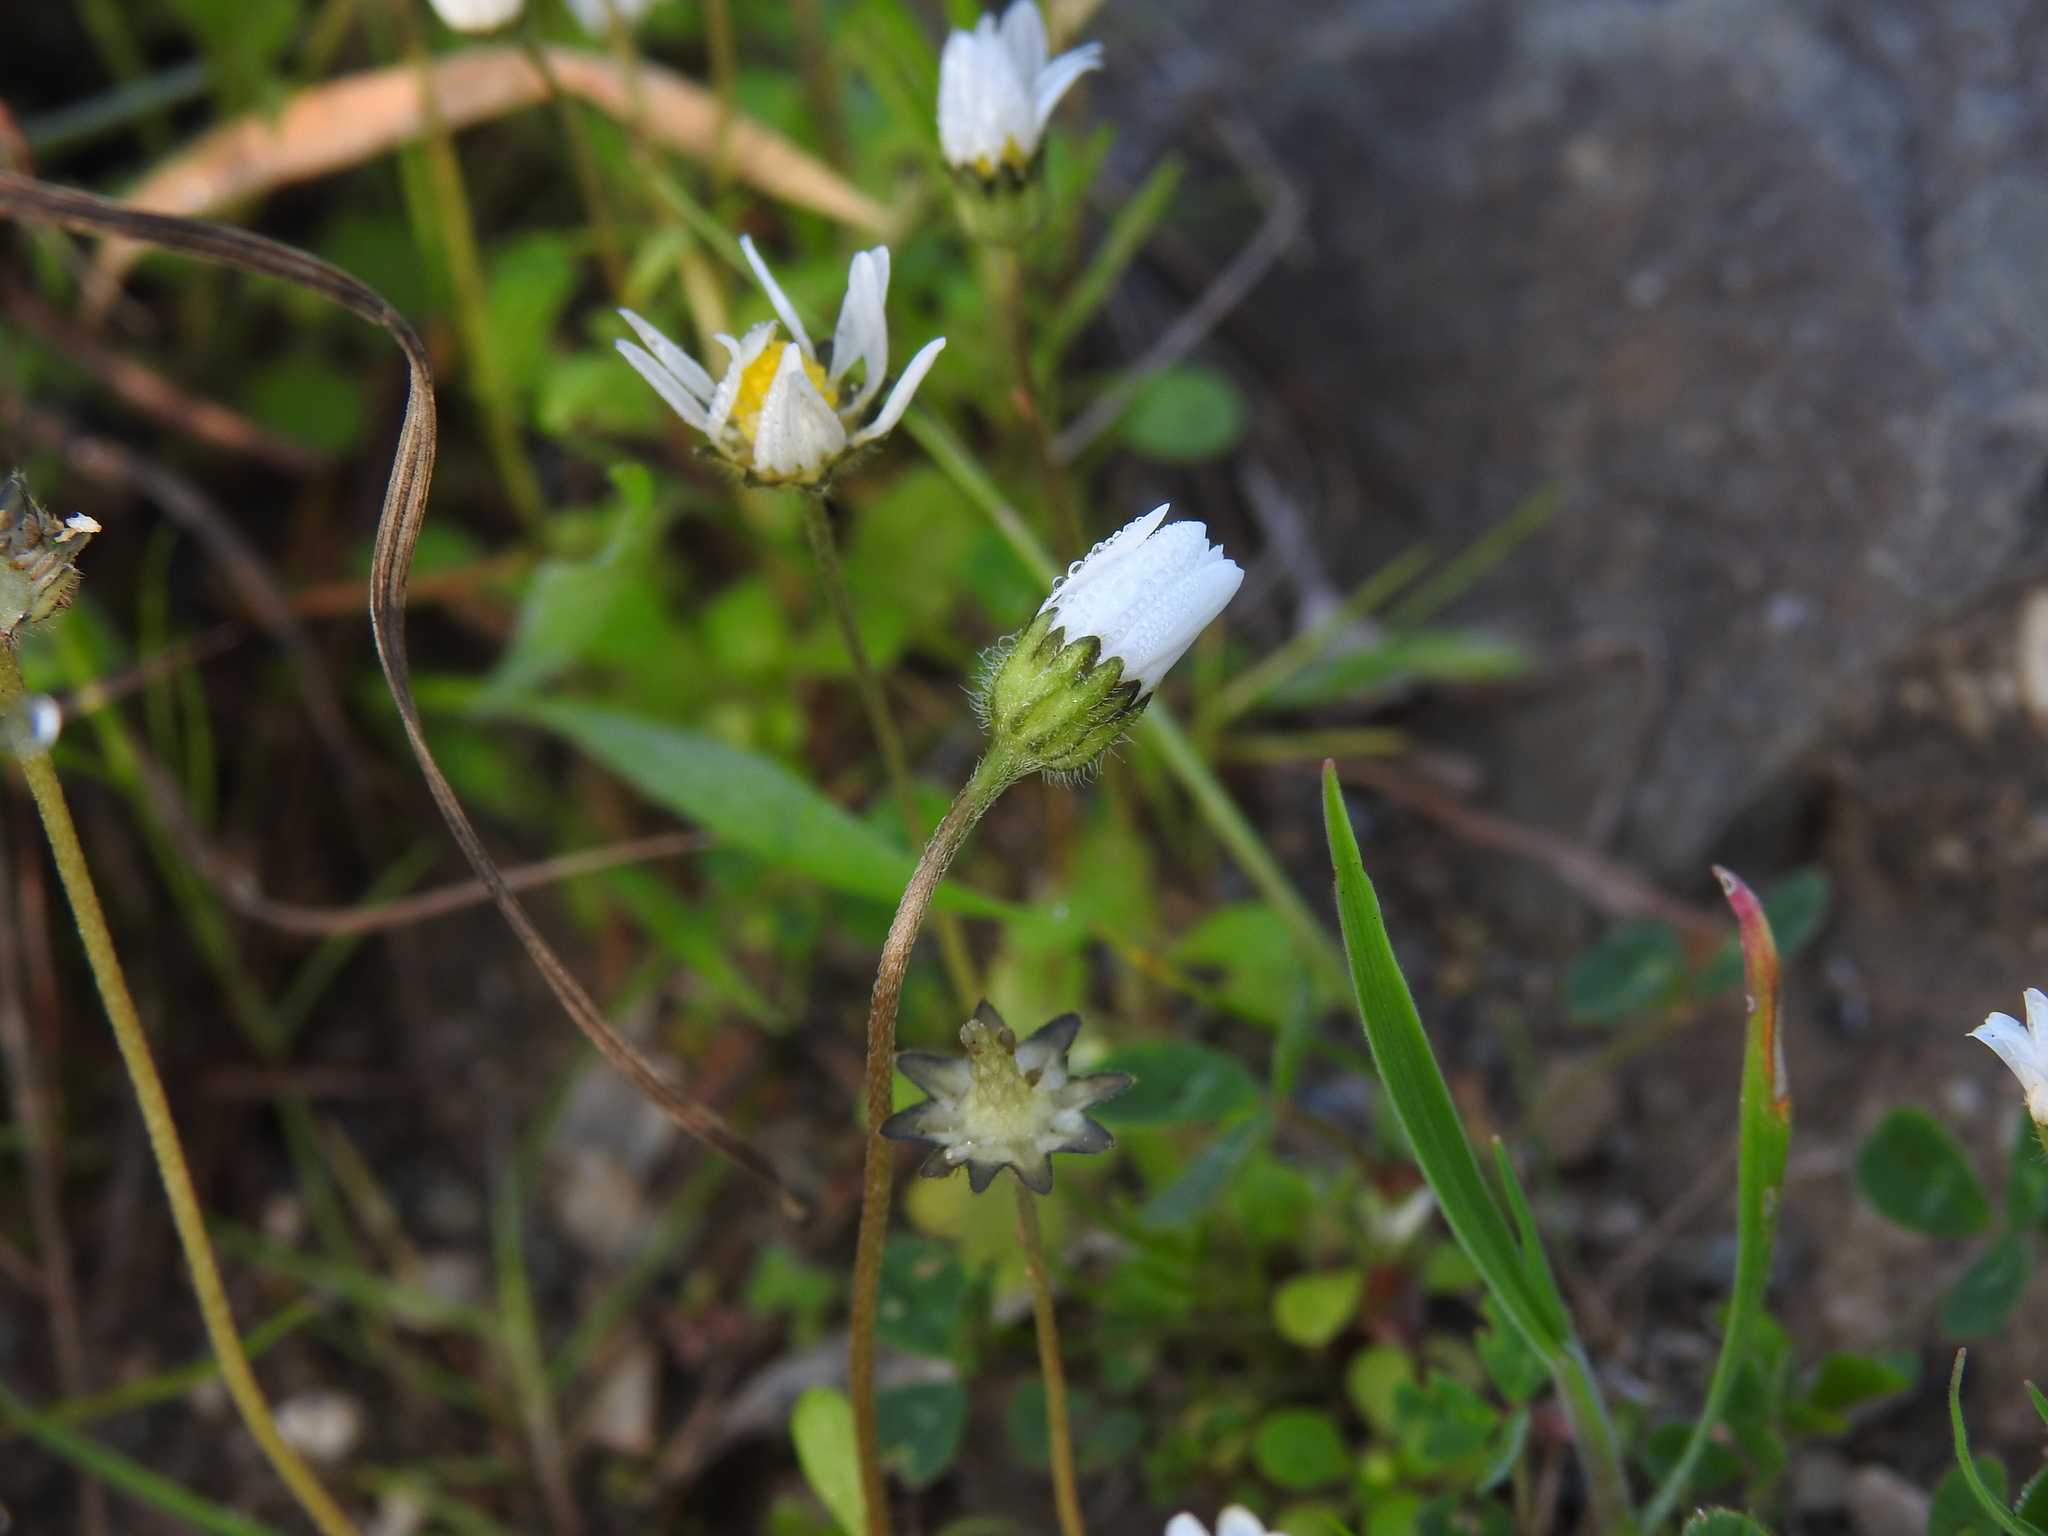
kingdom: Plantae
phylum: Tracheophyta
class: Magnoliopsida
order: Asterales
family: Asteraceae
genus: Bellis
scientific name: Bellis annua
